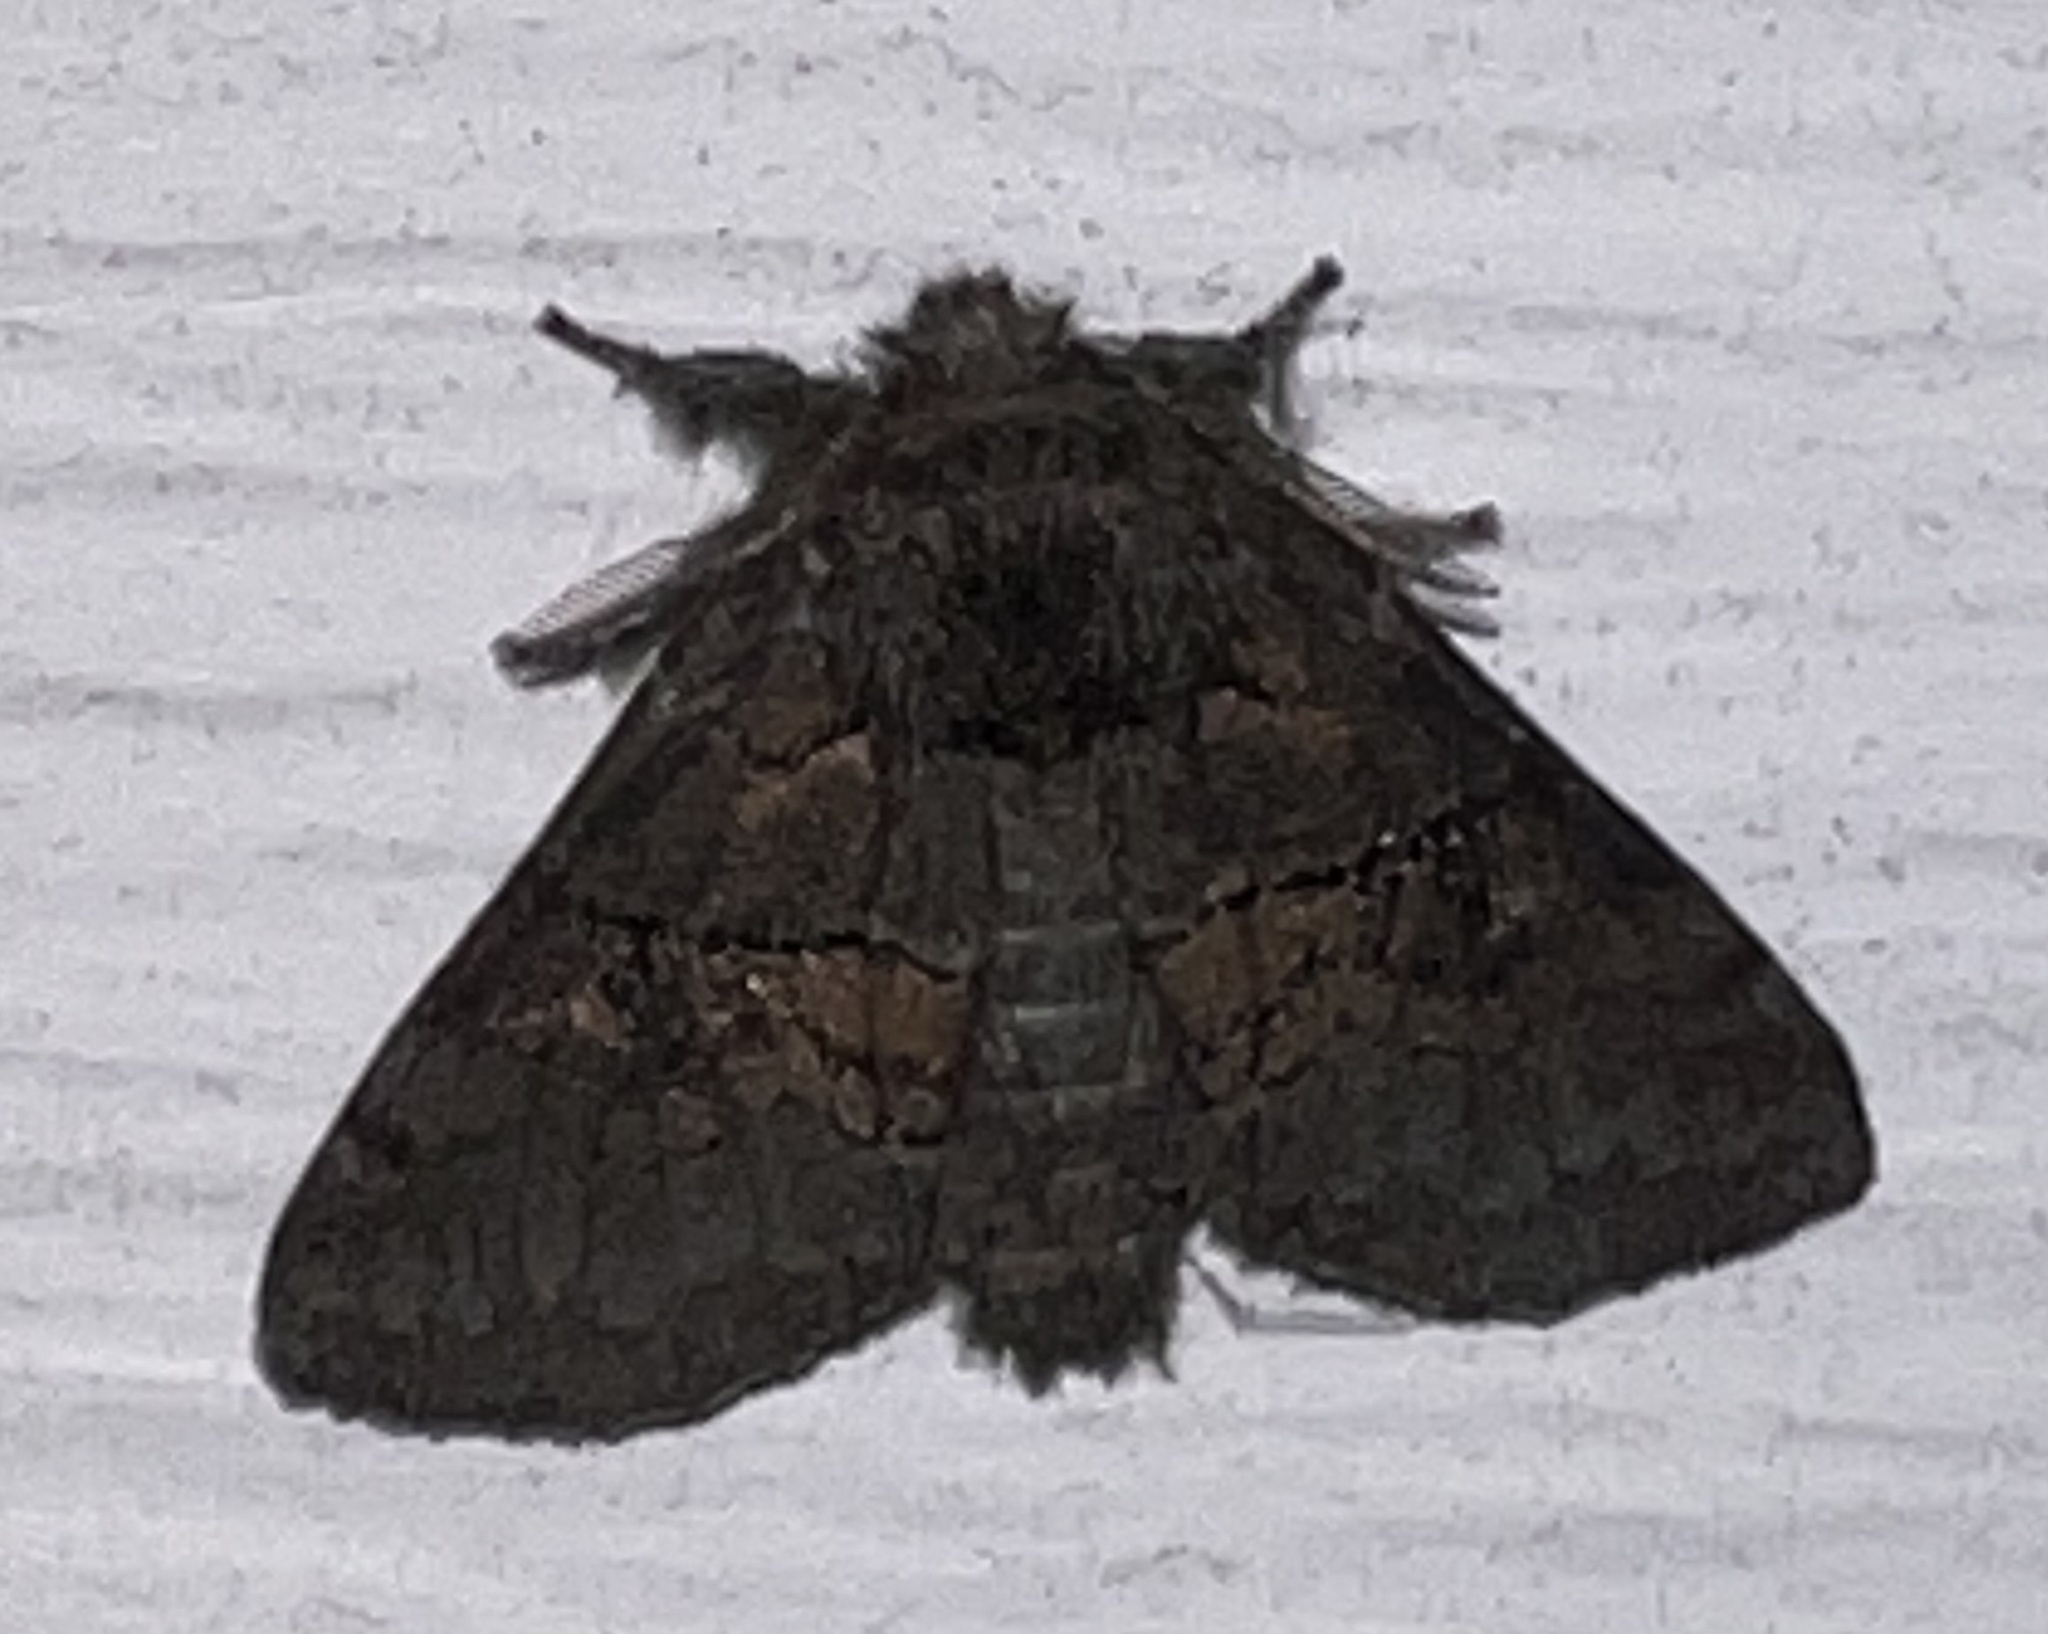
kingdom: Animalia
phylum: Arthropoda
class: Insecta
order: Lepidoptera
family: Notodontidae
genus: Gluphisia
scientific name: Gluphisia septentrionis
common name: Common gluphisia
